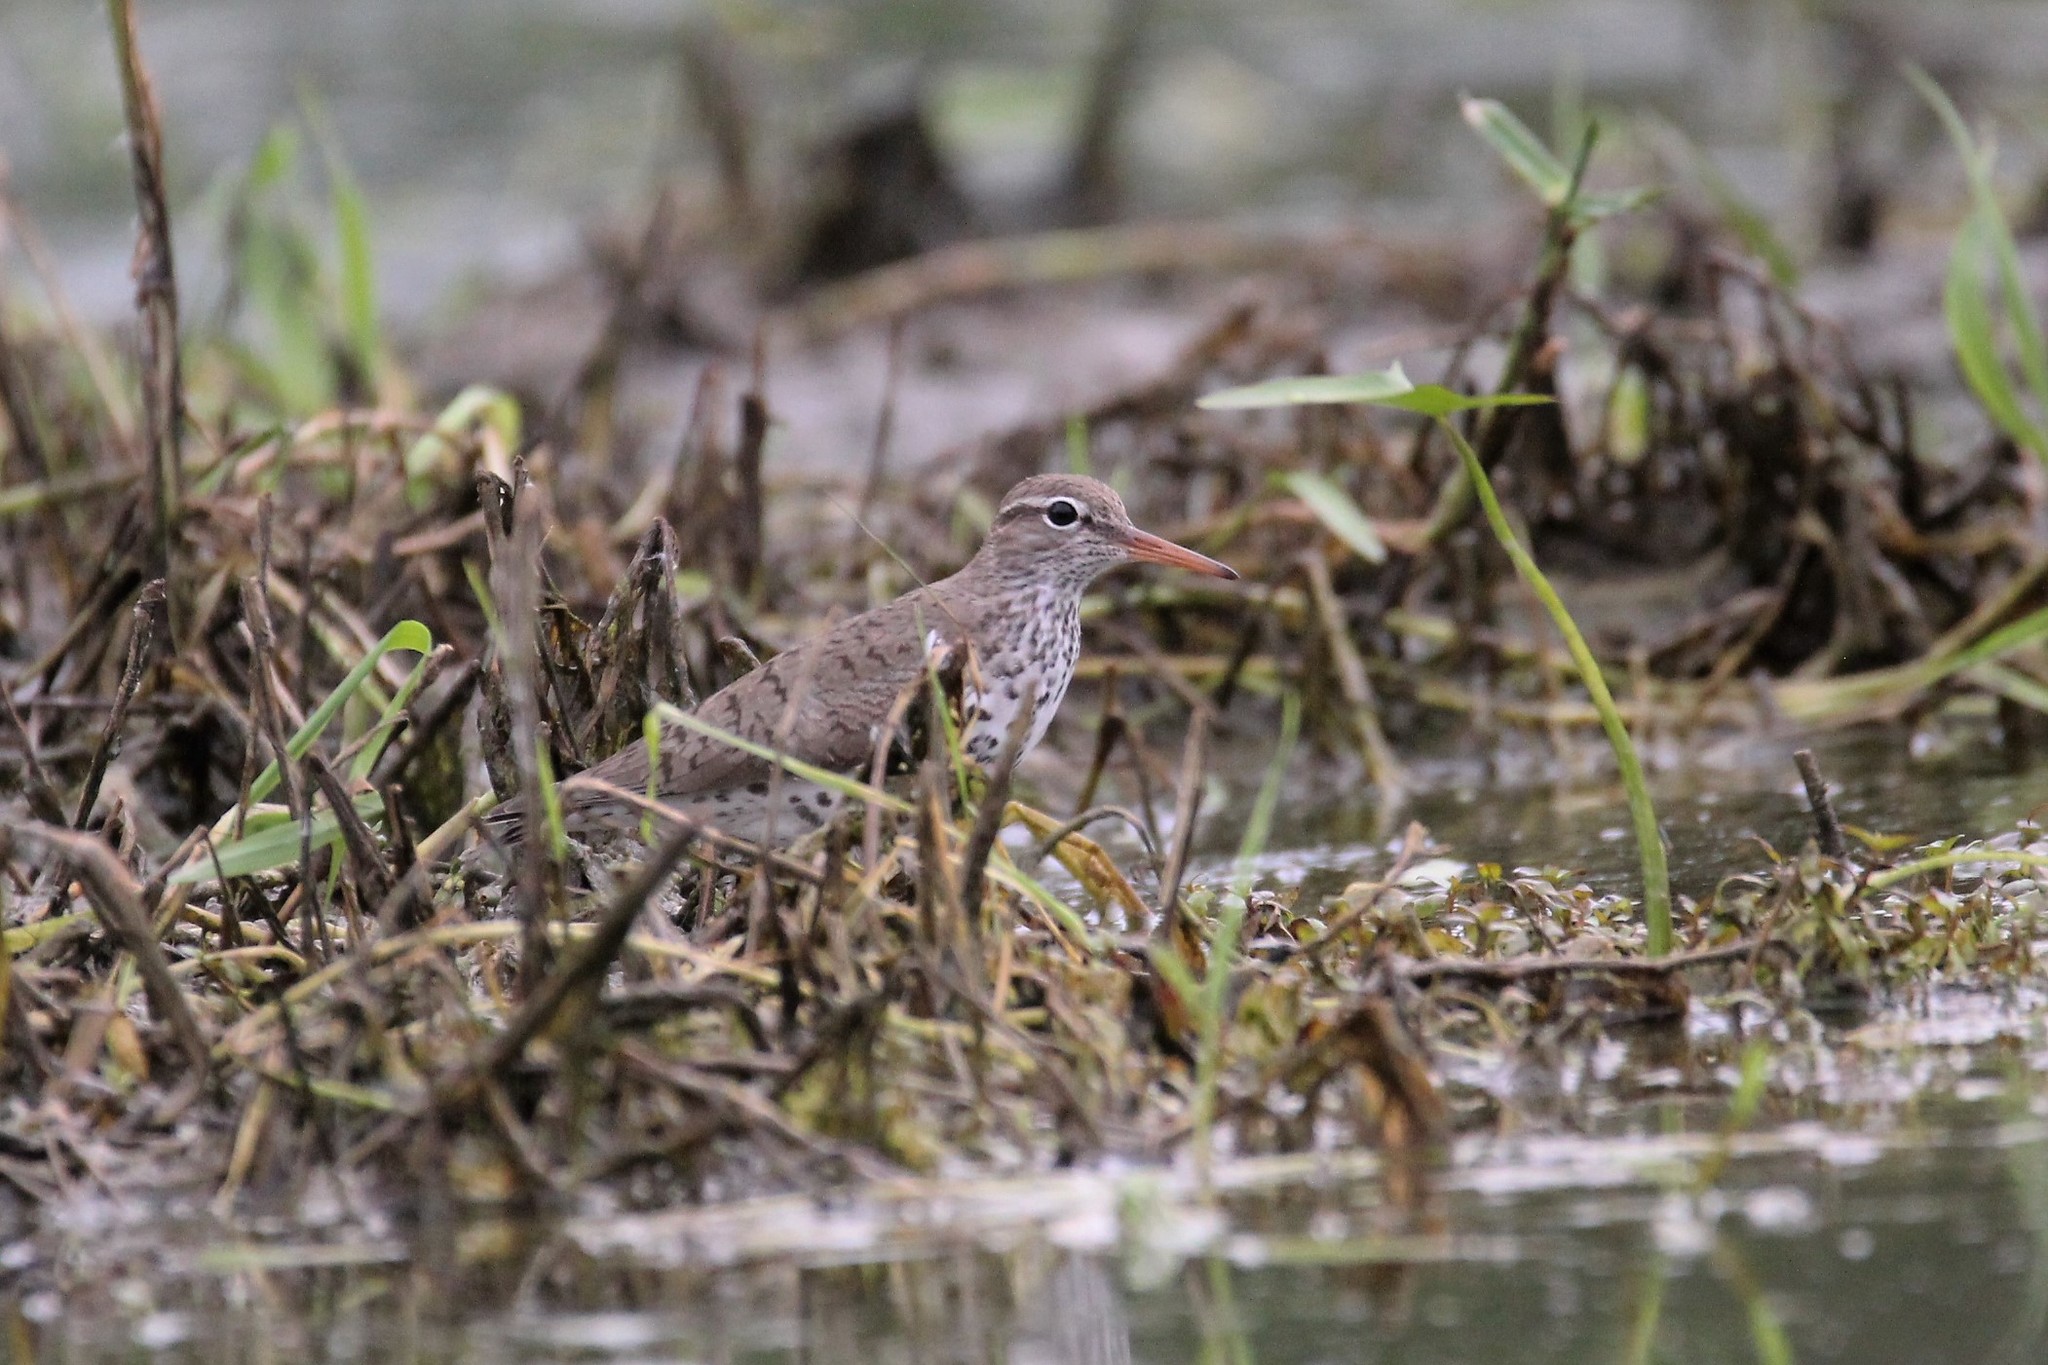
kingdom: Animalia
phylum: Chordata
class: Aves
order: Charadriiformes
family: Scolopacidae
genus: Actitis
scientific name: Actitis macularius
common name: Spotted sandpiper
